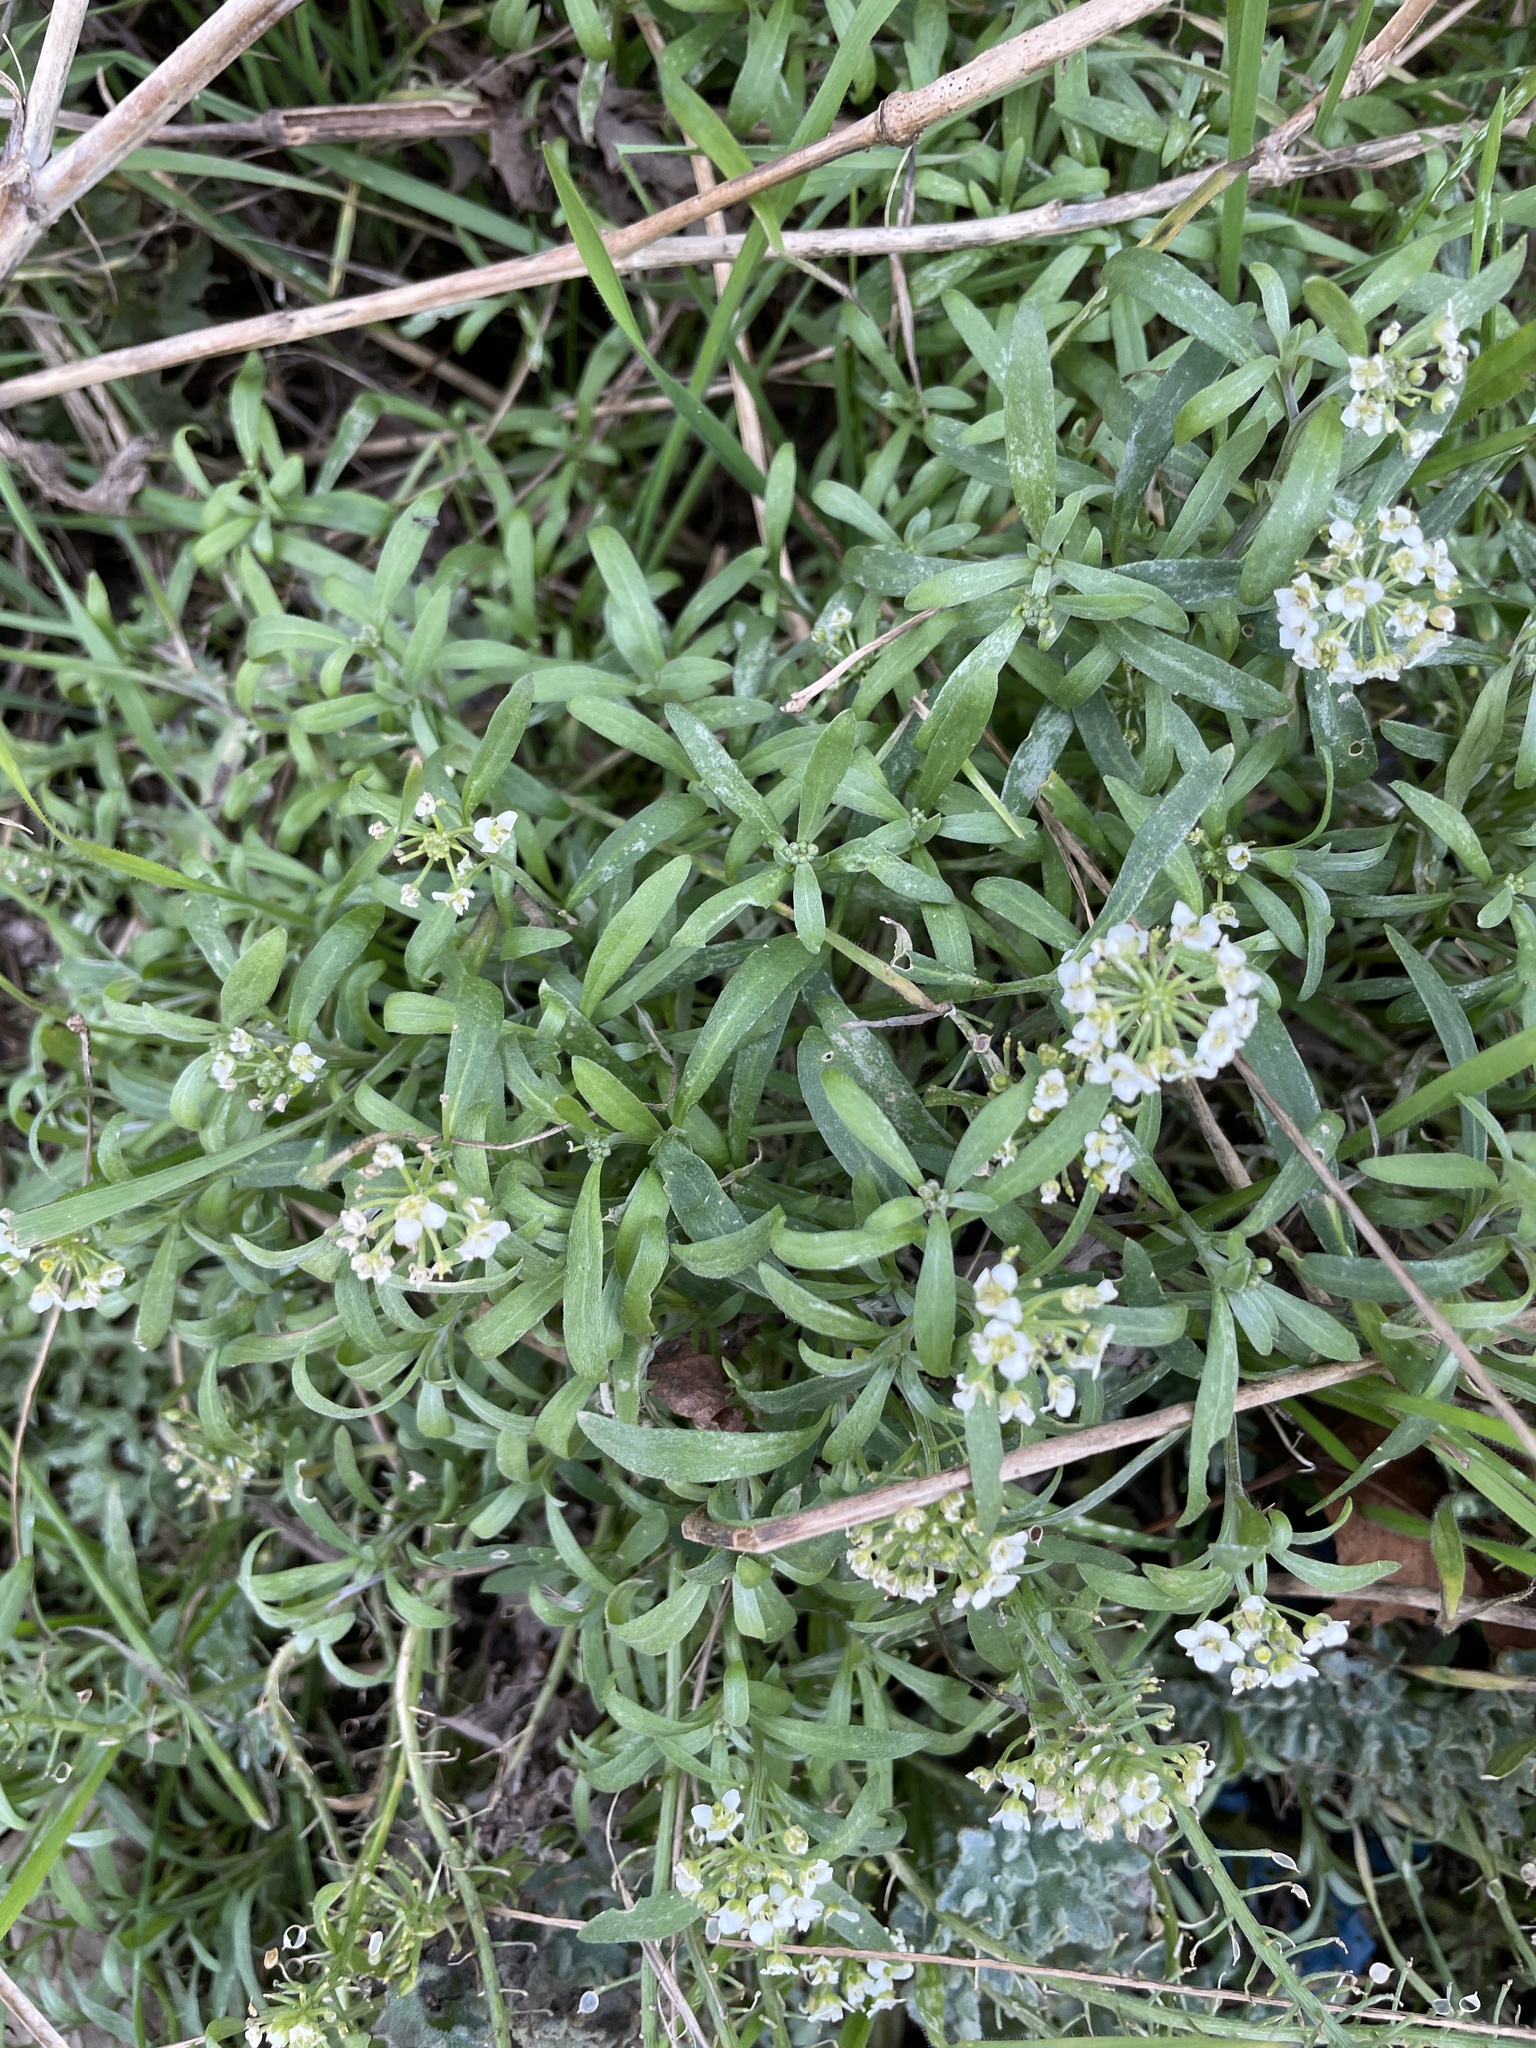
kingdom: Plantae
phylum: Tracheophyta
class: Magnoliopsida
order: Brassicales
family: Brassicaceae
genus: Lobularia
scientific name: Lobularia maritima
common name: Sweet alison
